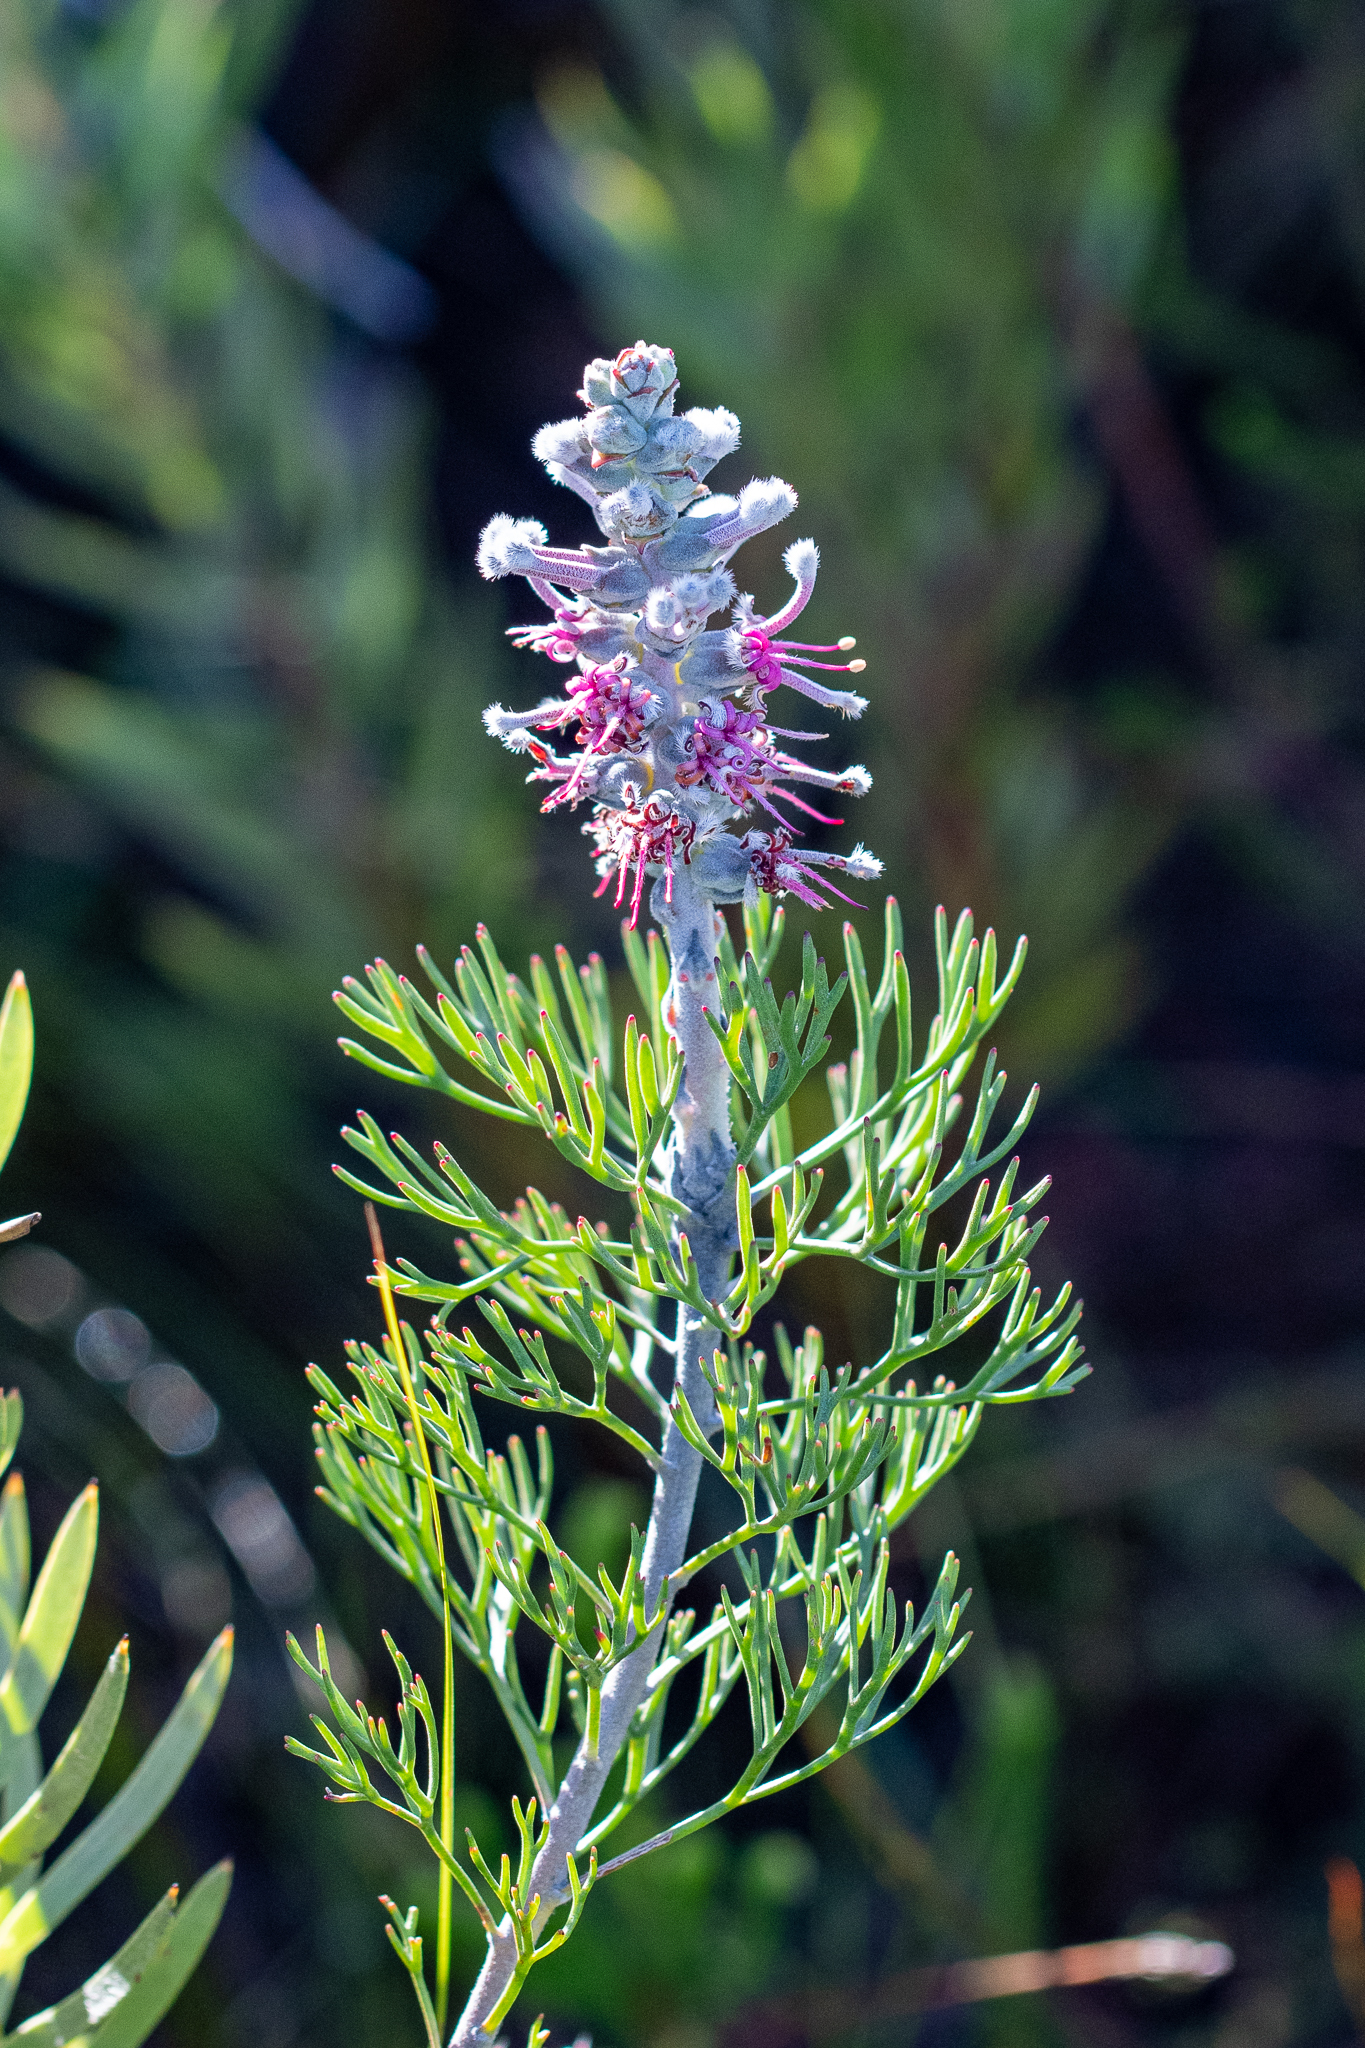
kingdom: Plantae
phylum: Tracheophyta
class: Magnoliopsida
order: Proteales
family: Proteaceae
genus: Paranomus
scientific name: Paranomus bolusii
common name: Overberg sceptre
